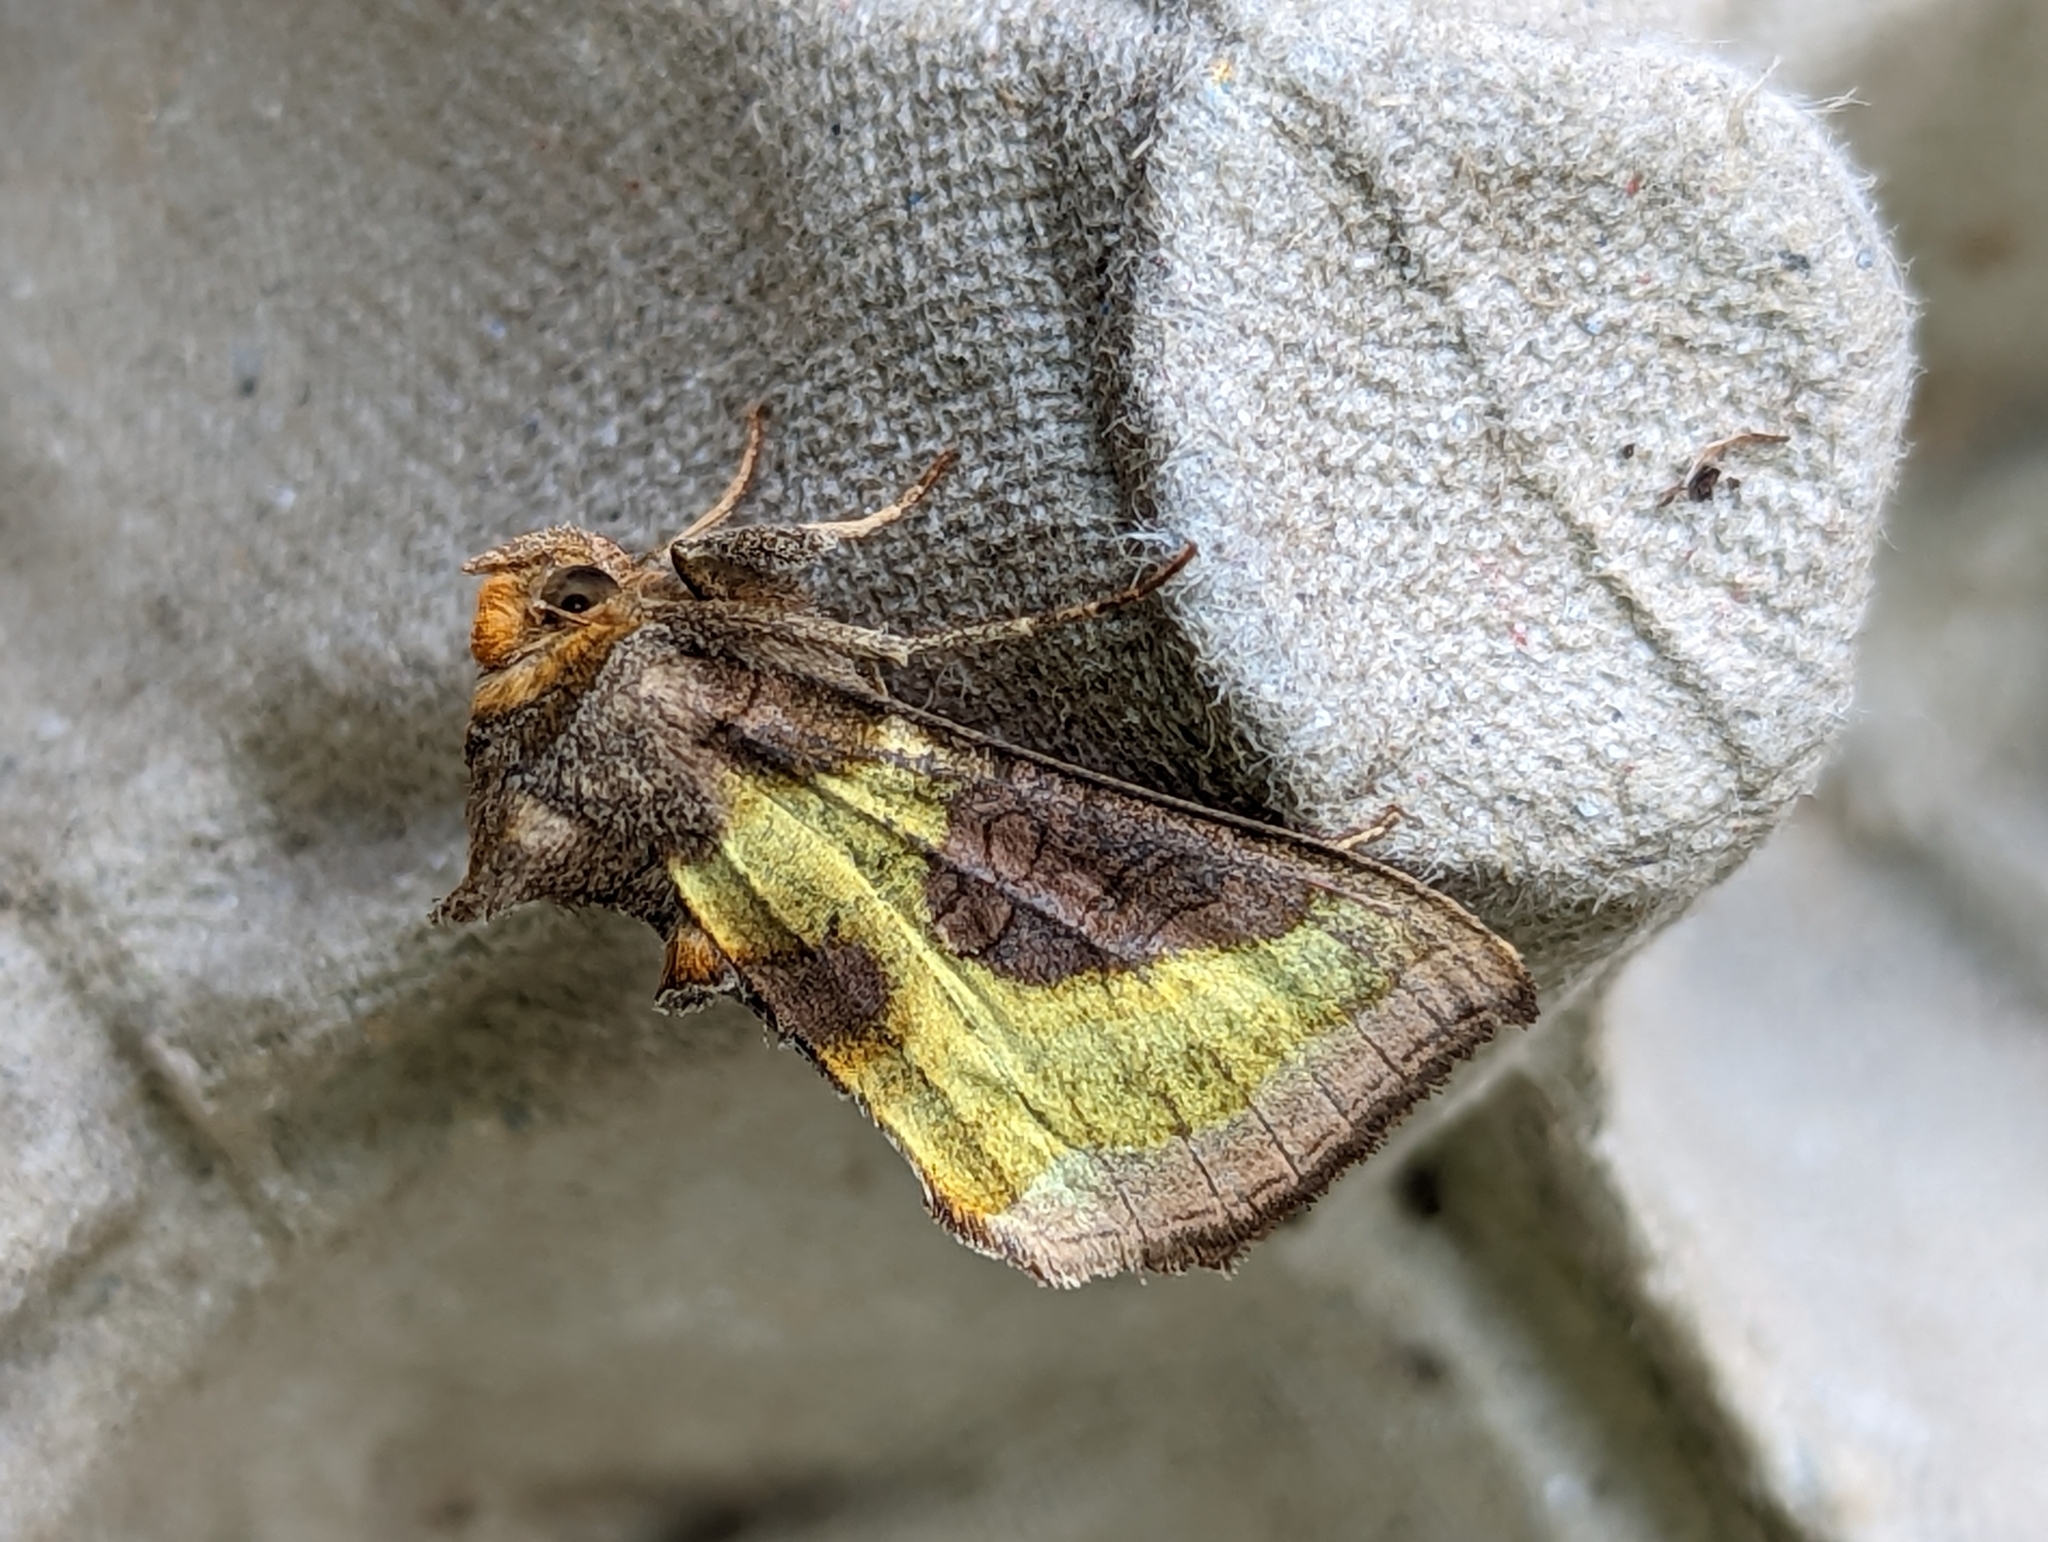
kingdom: Animalia
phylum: Arthropoda
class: Insecta
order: Lepidoptera
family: Noctuidae
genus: Diachrysia
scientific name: Diachrysia chrysitis
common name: Burnished brass
